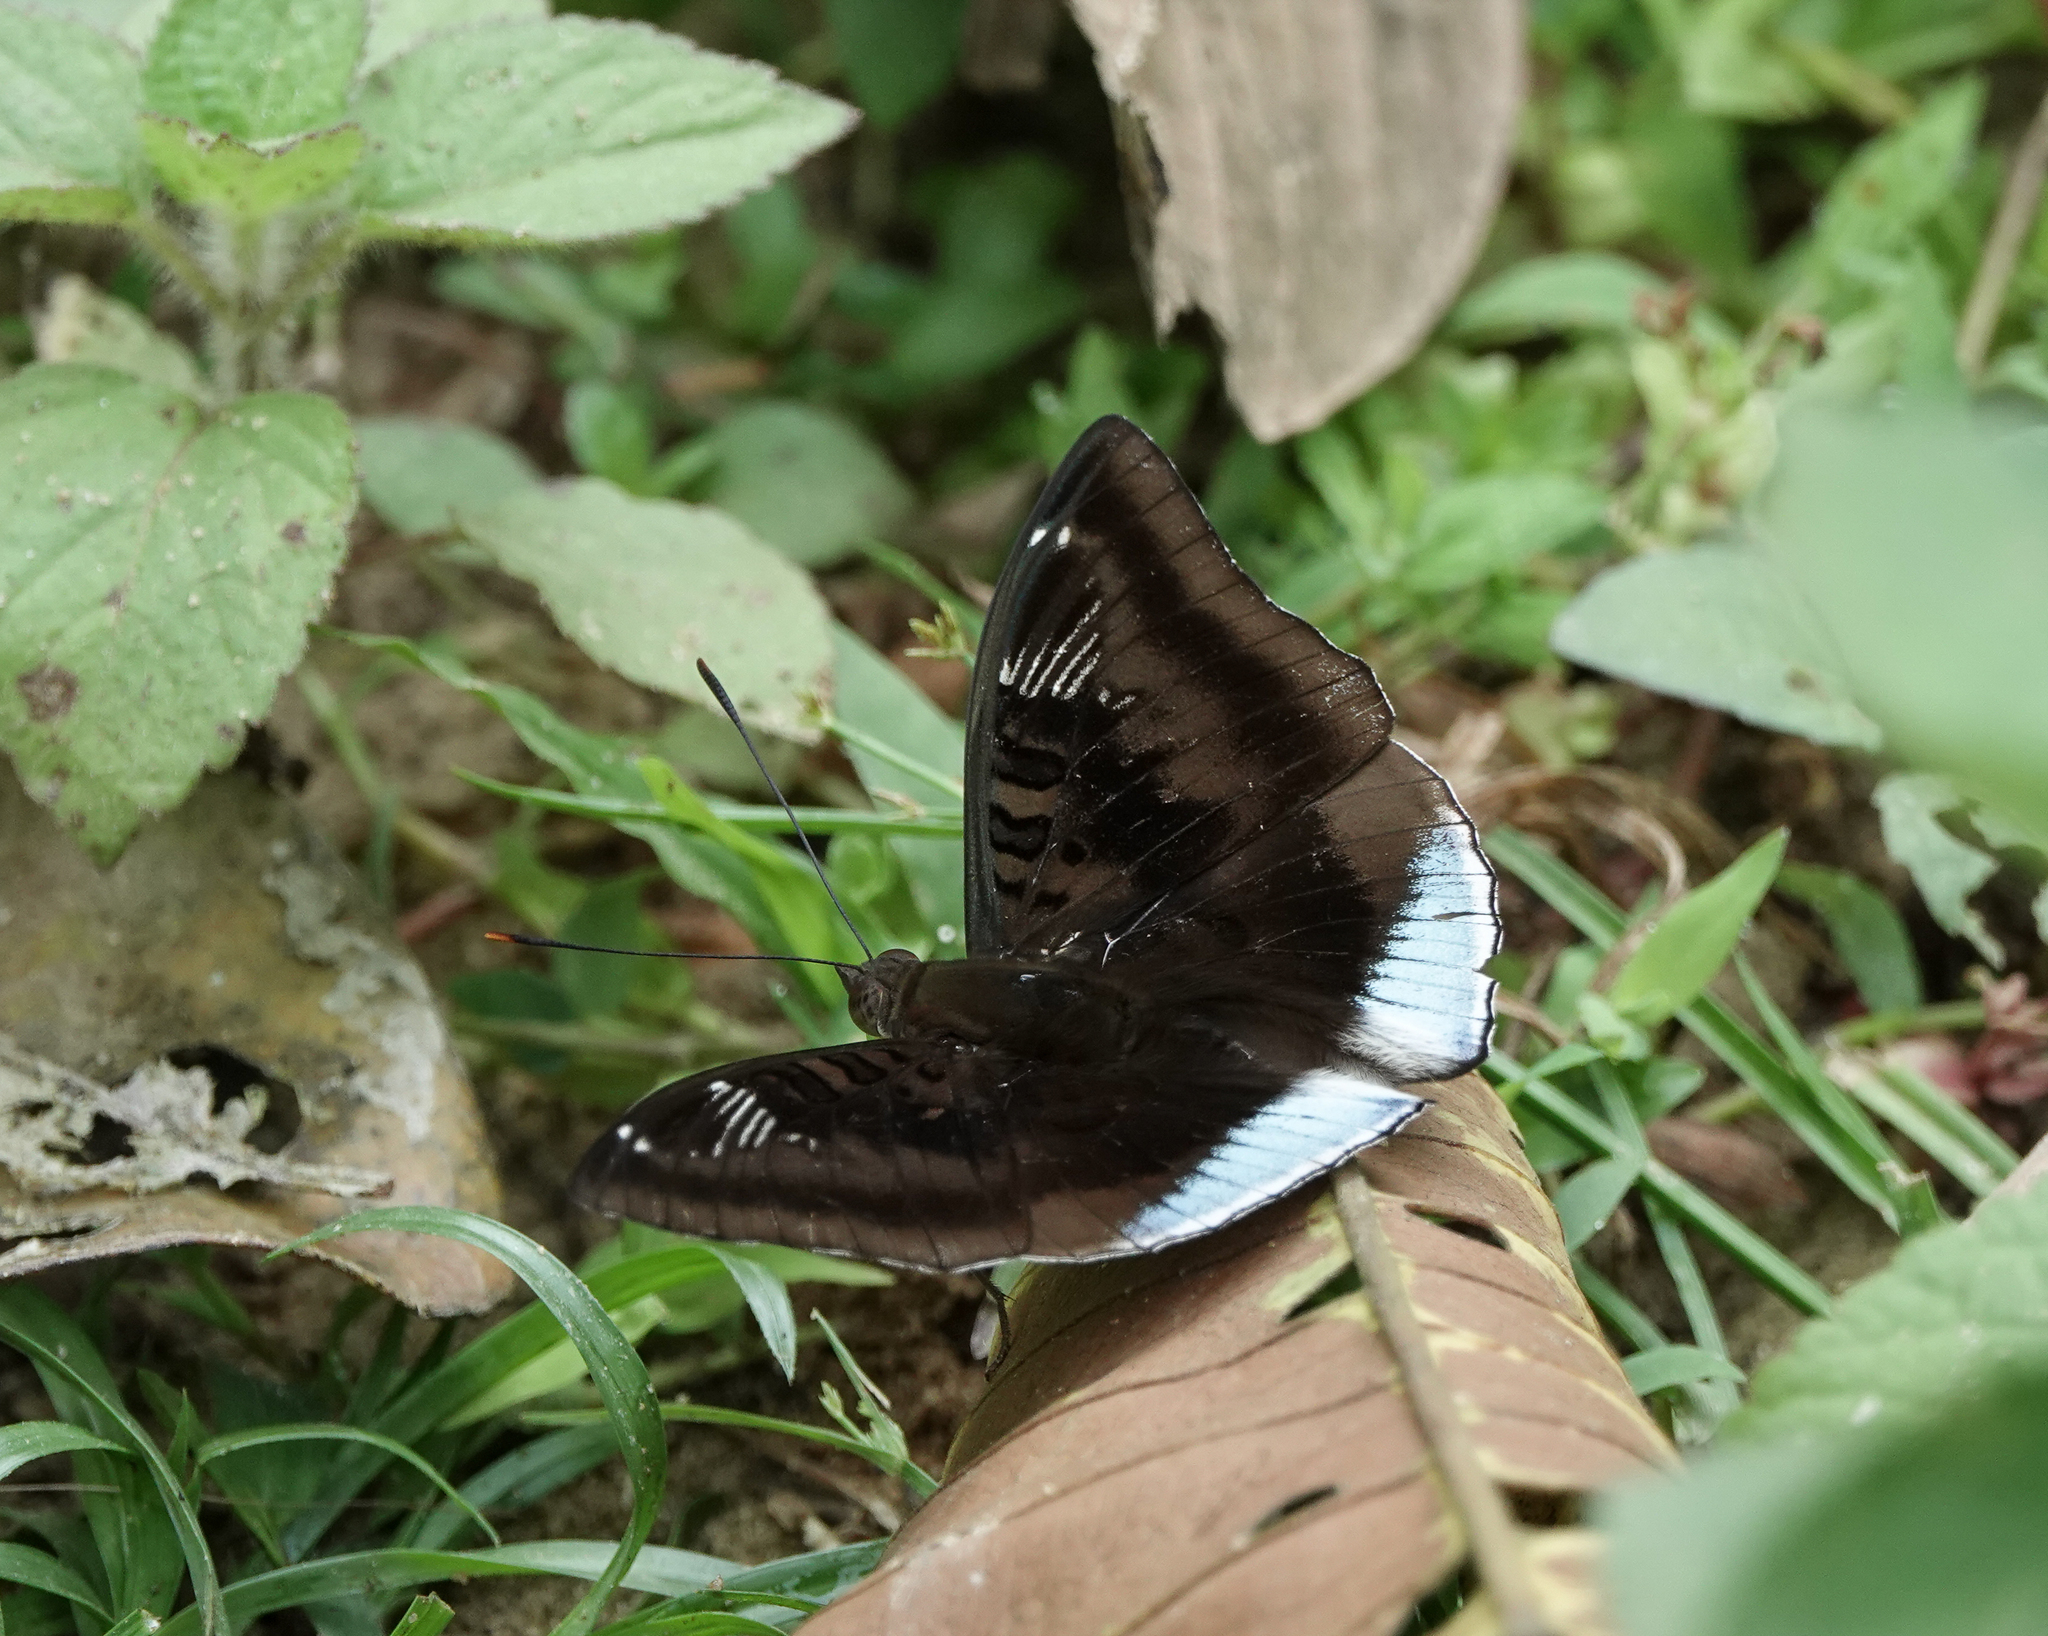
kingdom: Animalia
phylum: Arthropoda
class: Insecta
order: Lepidoptera
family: Nymphalidae
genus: Euthalia
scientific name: Euthalia phemius
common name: White-edged blue baron
